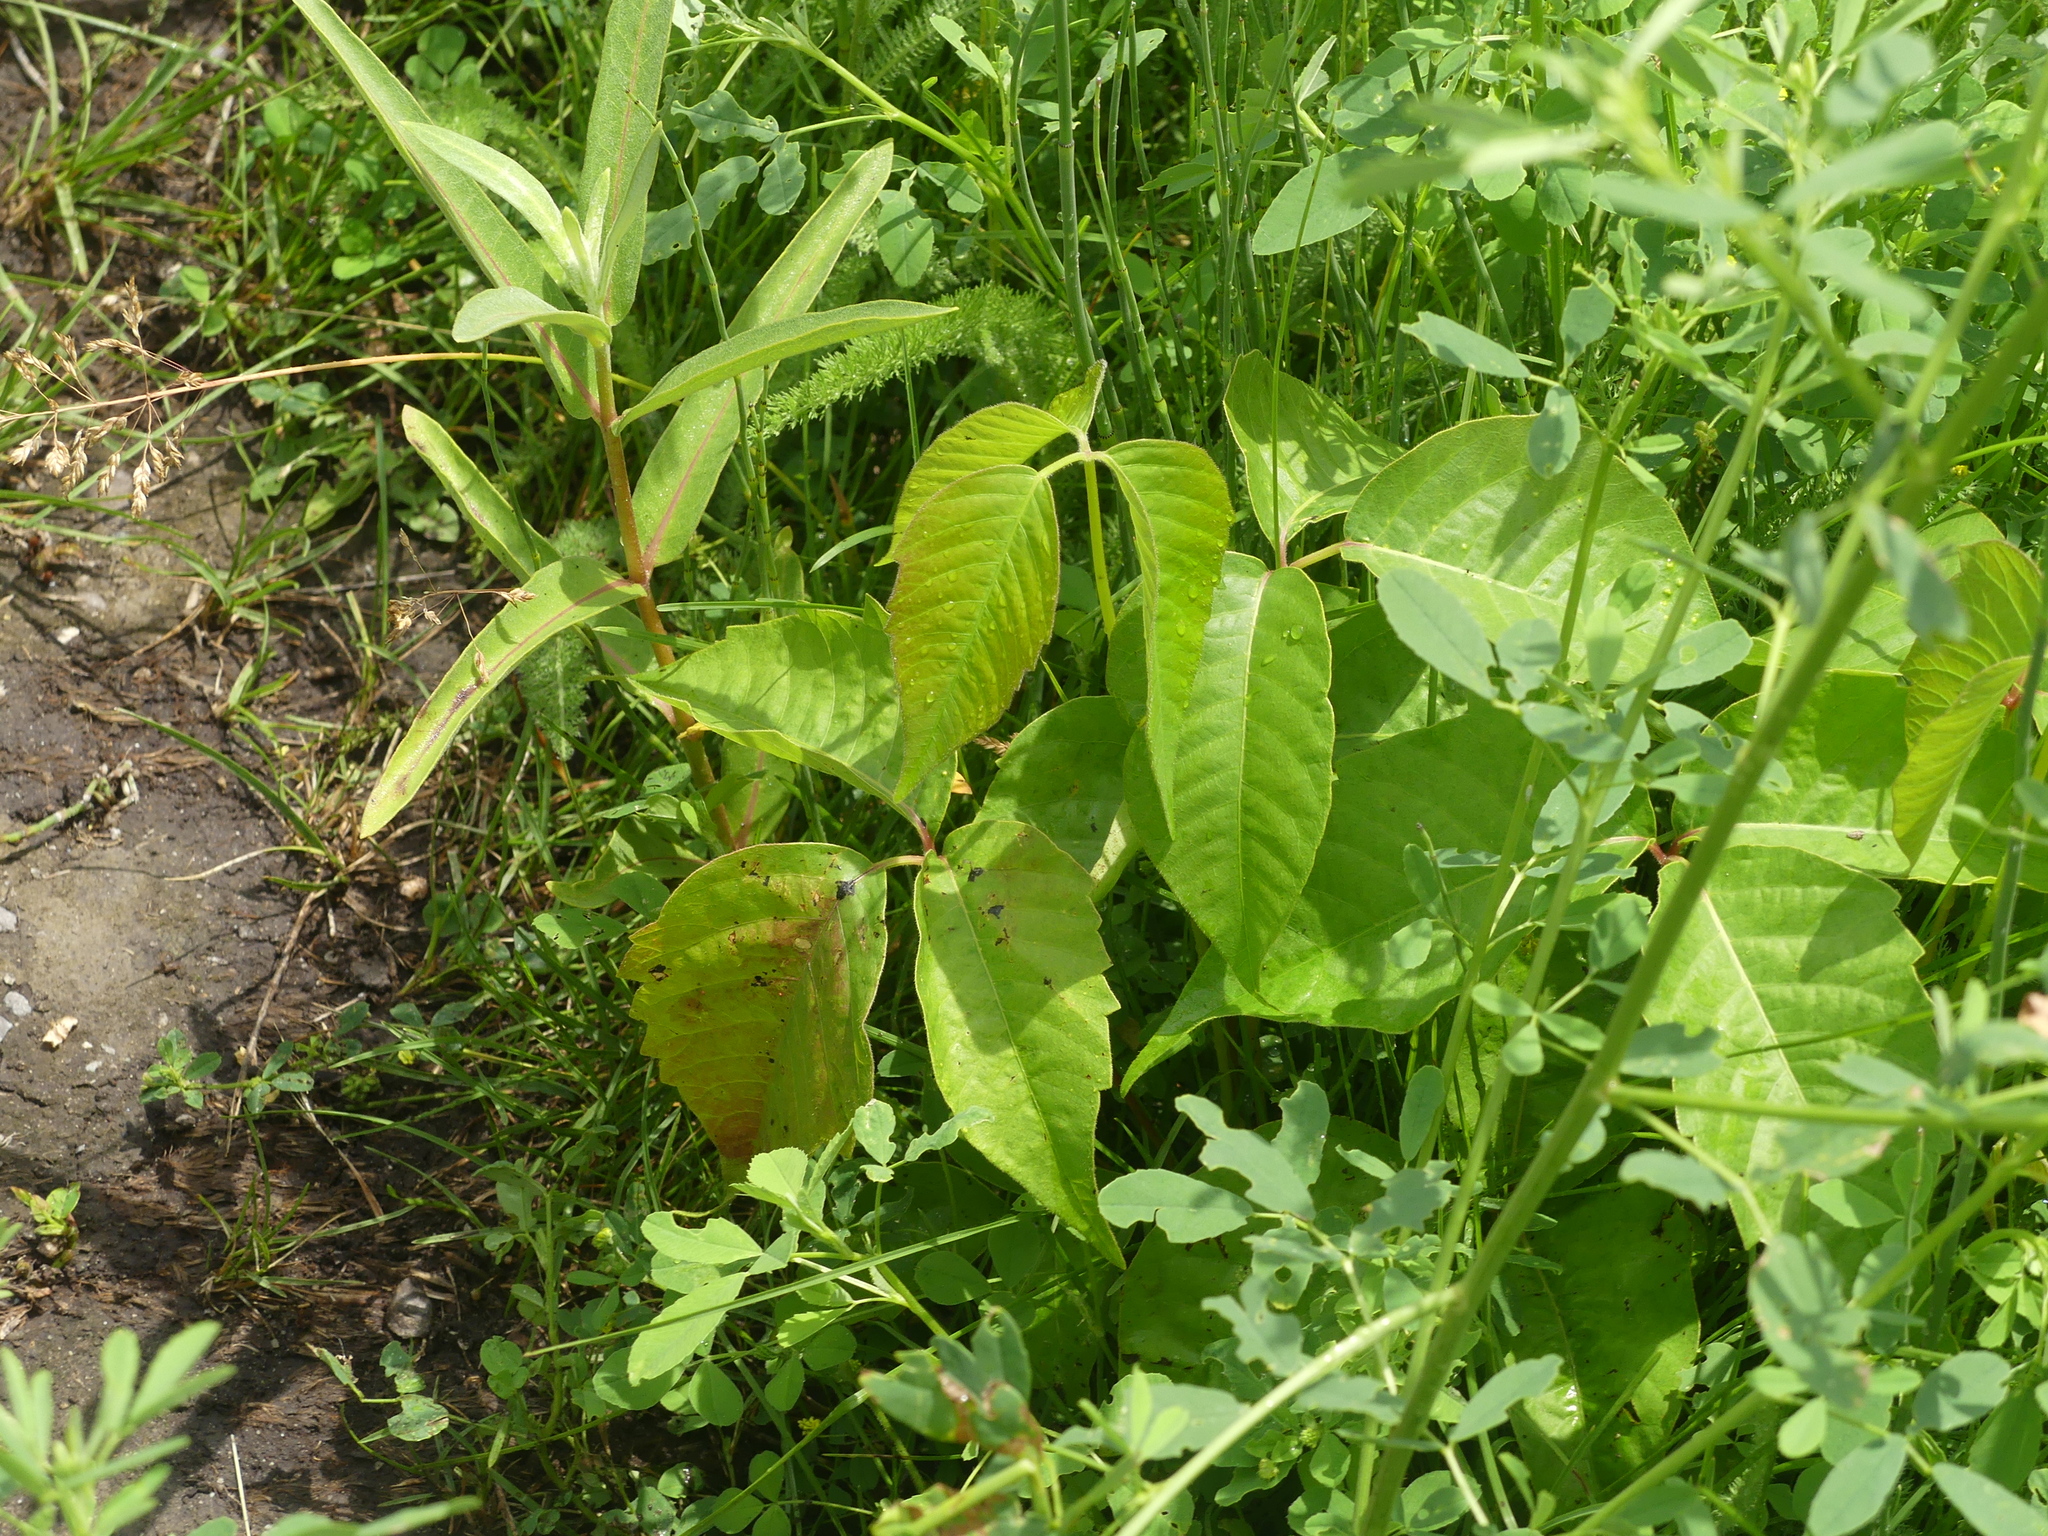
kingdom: Plantae
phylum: Tracheophyta
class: Magnoliopsida
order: Sapindales
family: Anacardiaceae
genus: Toxicodendron
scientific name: Toxicodendron rydbergii
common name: Rydberg's poison-ivy
